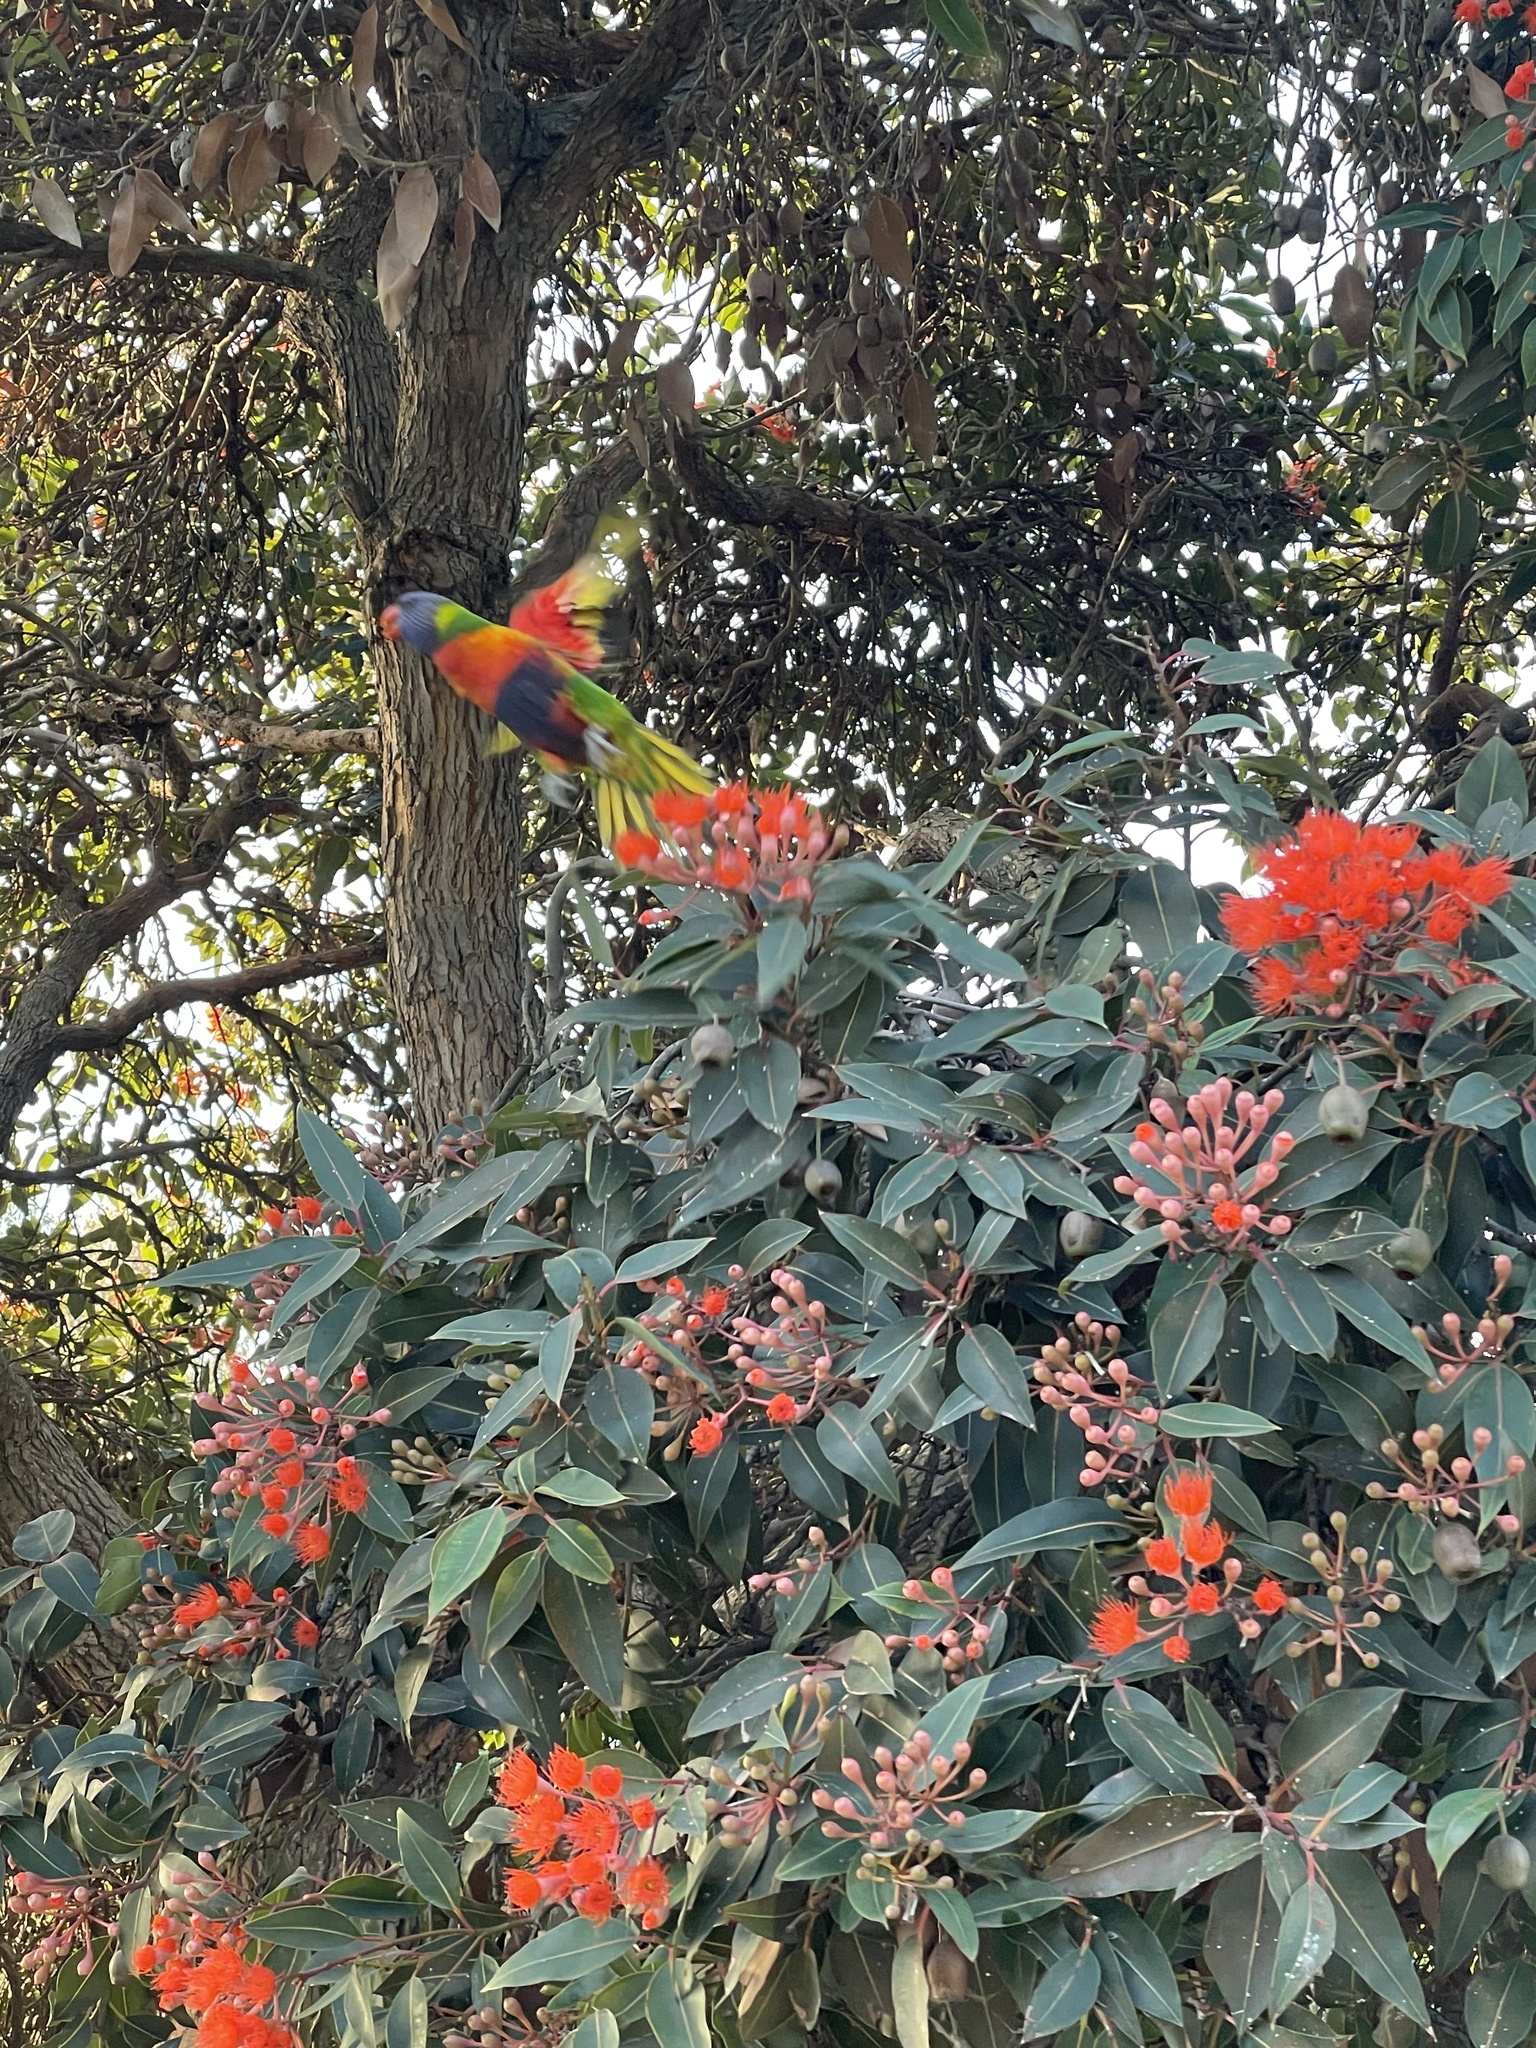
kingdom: Animalia
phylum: Chordata
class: Aves
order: Psittaciformes
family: Psittacidae
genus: Trichoglossus
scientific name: Trichoglossus haematodus
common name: Coconut lorikeet
